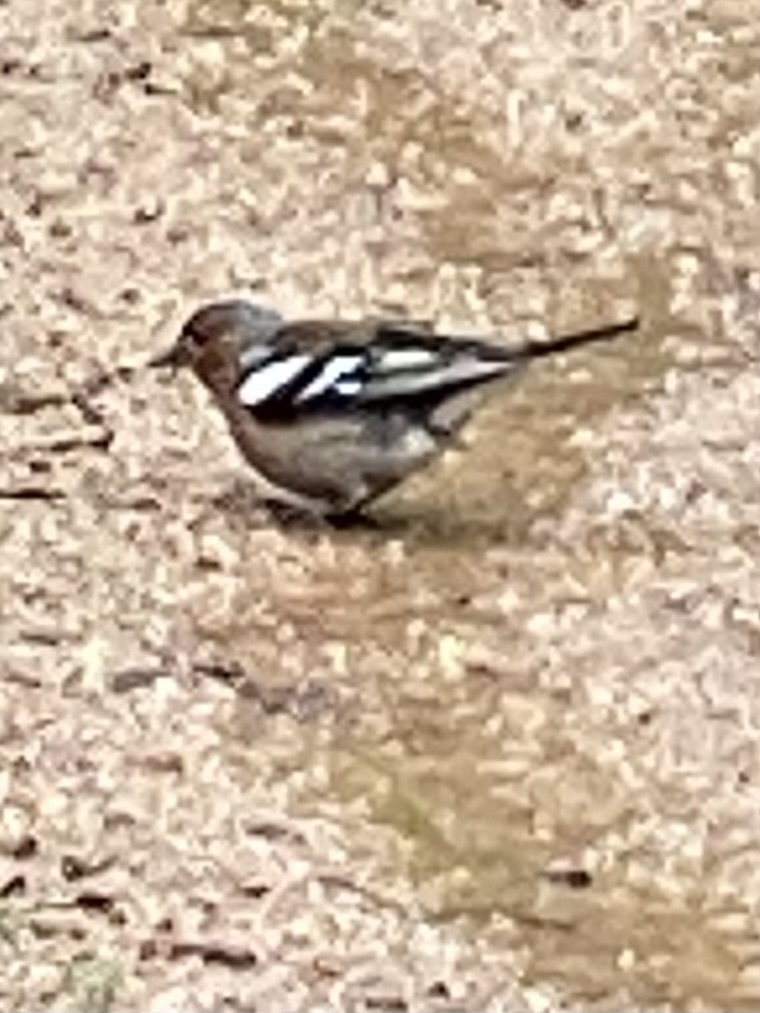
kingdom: Animalia
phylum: Chordata
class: Aves
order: Passeriformes
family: Fringillidae
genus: Fringilla
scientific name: Fringilla coelebs
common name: Common chaffinch
